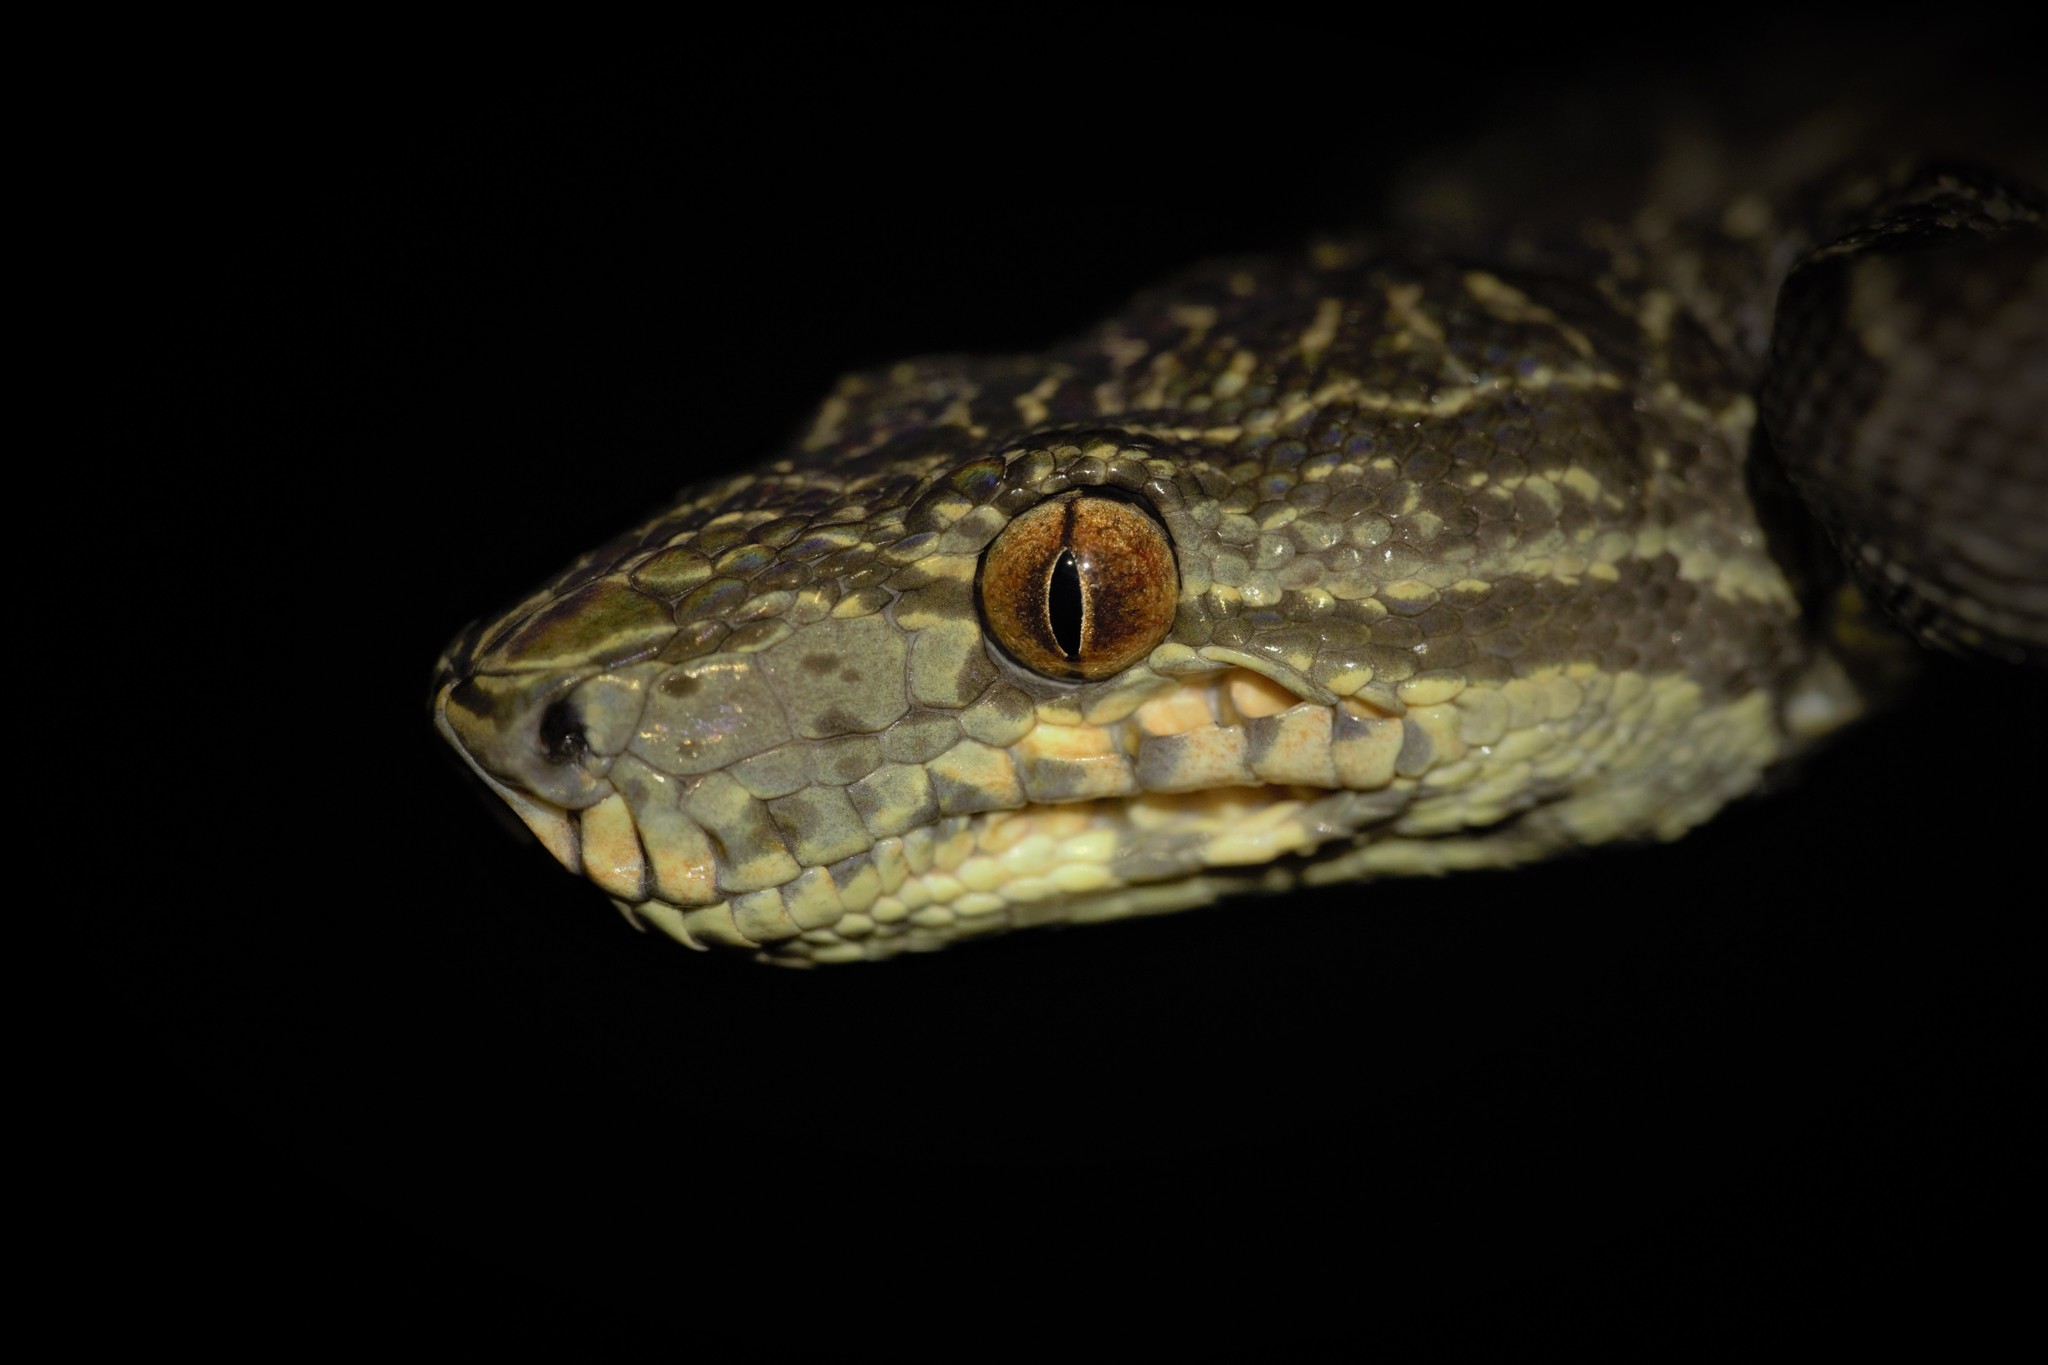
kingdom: Animalia
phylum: Chordata
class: Squamata
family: Boidae
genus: Corallus
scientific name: Corallus hortulana
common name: Garden tree boa
